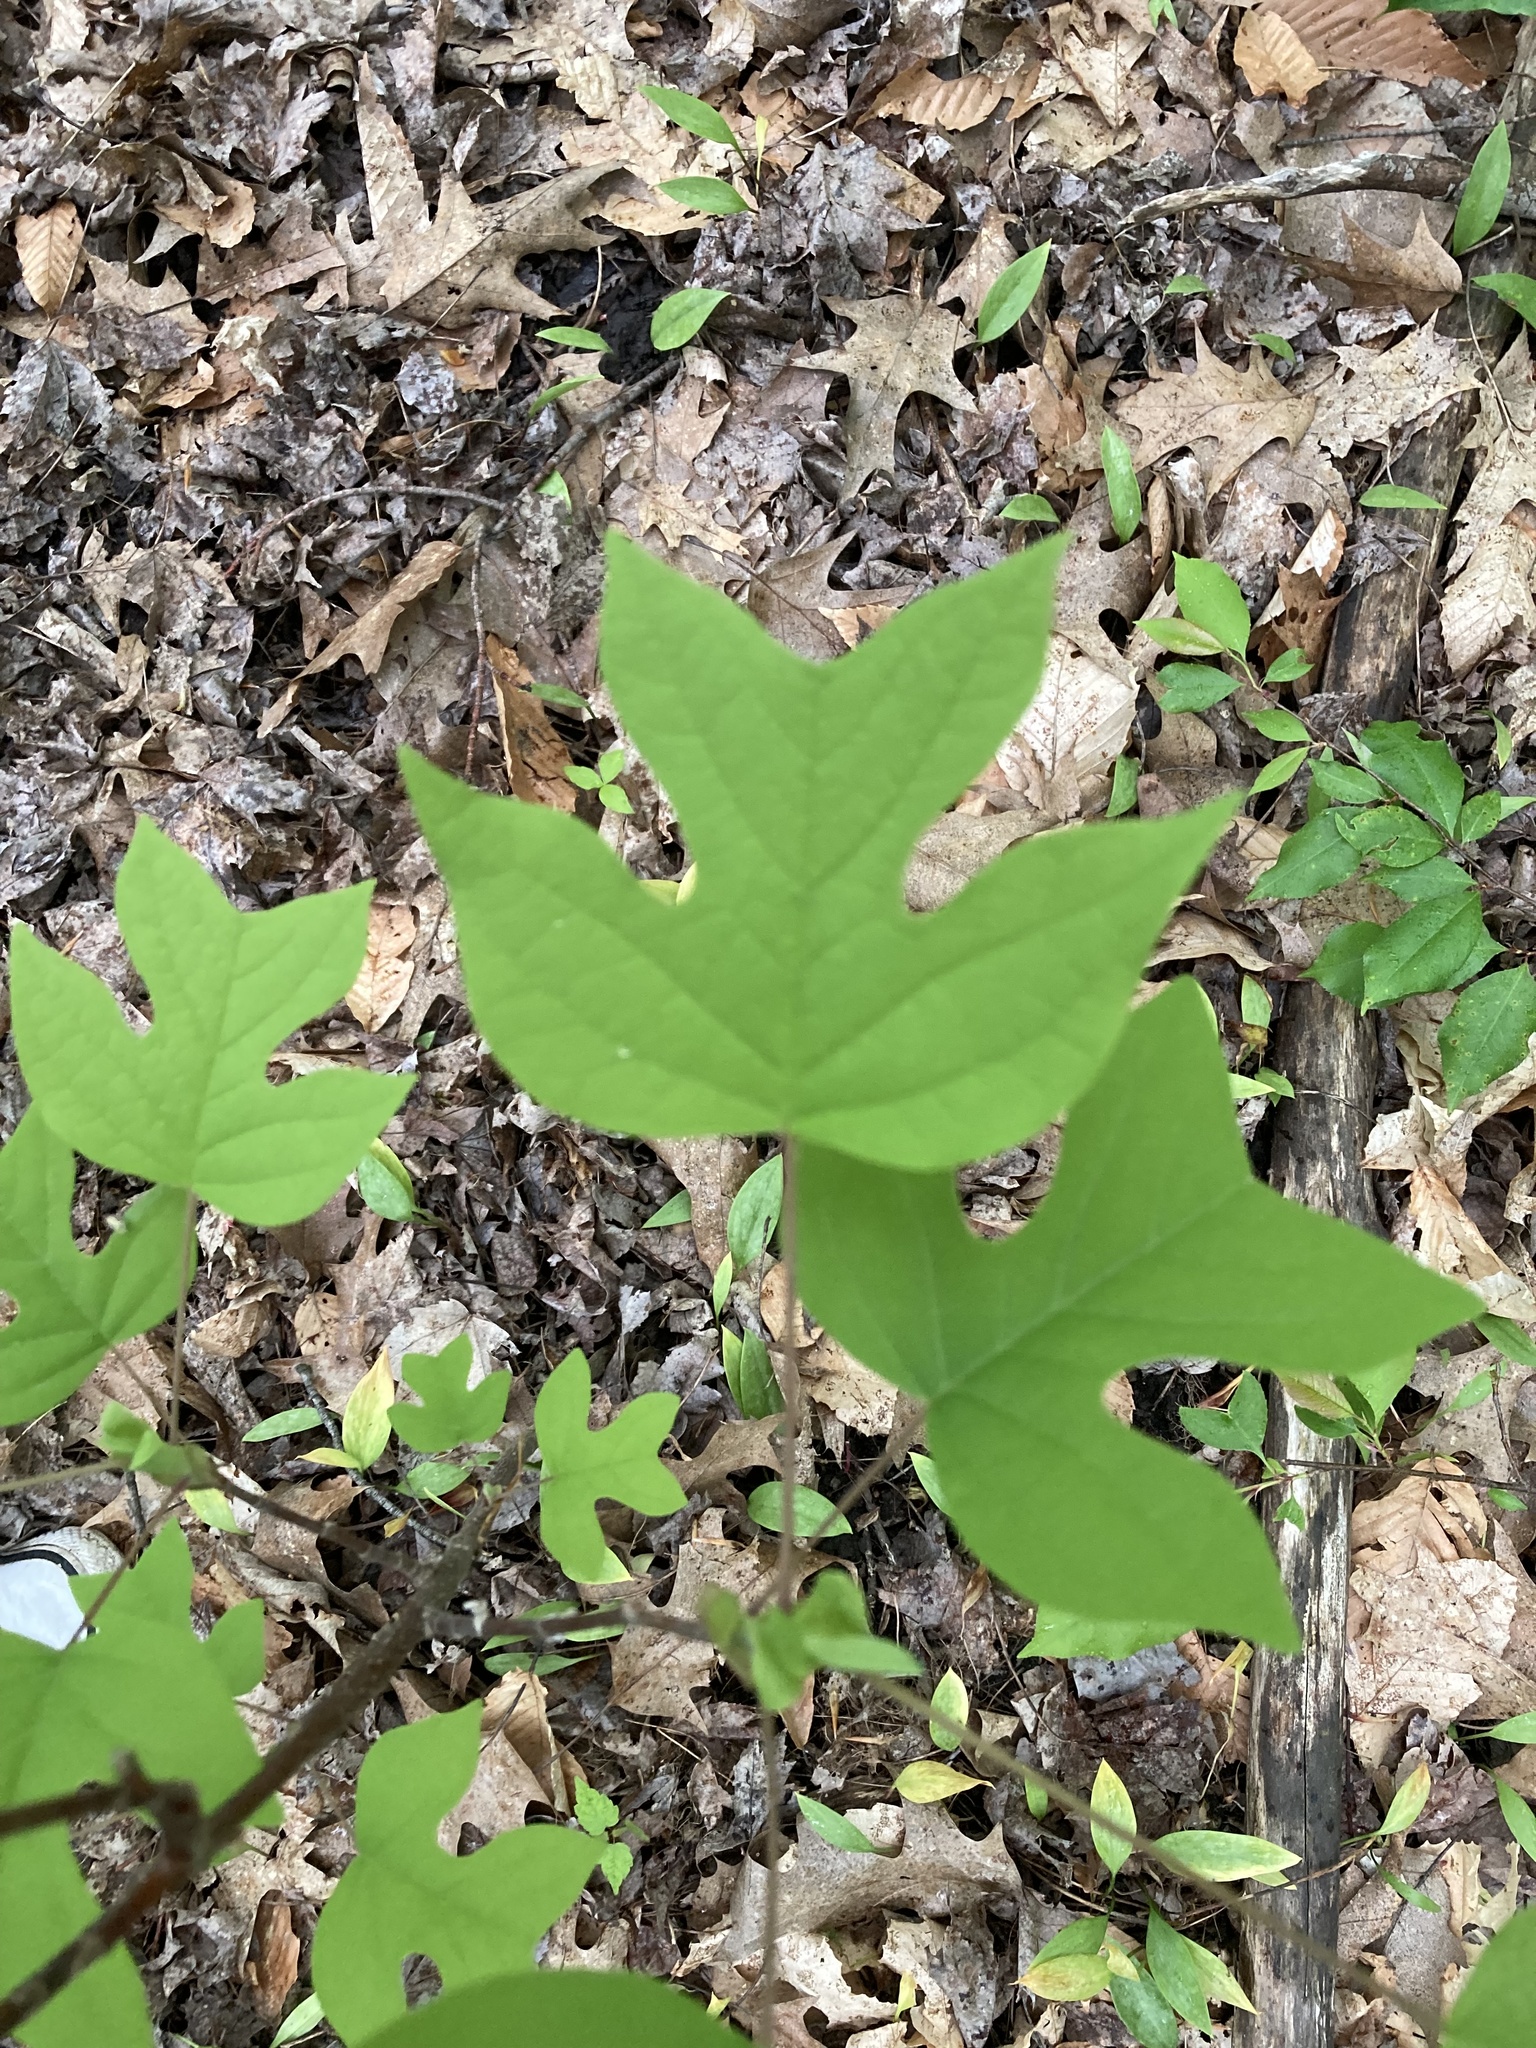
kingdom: Plantae
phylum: Tracheophyta
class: Magnoliopsida
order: Magnoliales
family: Magnoliaceae
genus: Liriodendron
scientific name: Liriodendron tulipifera
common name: Tulip tree
